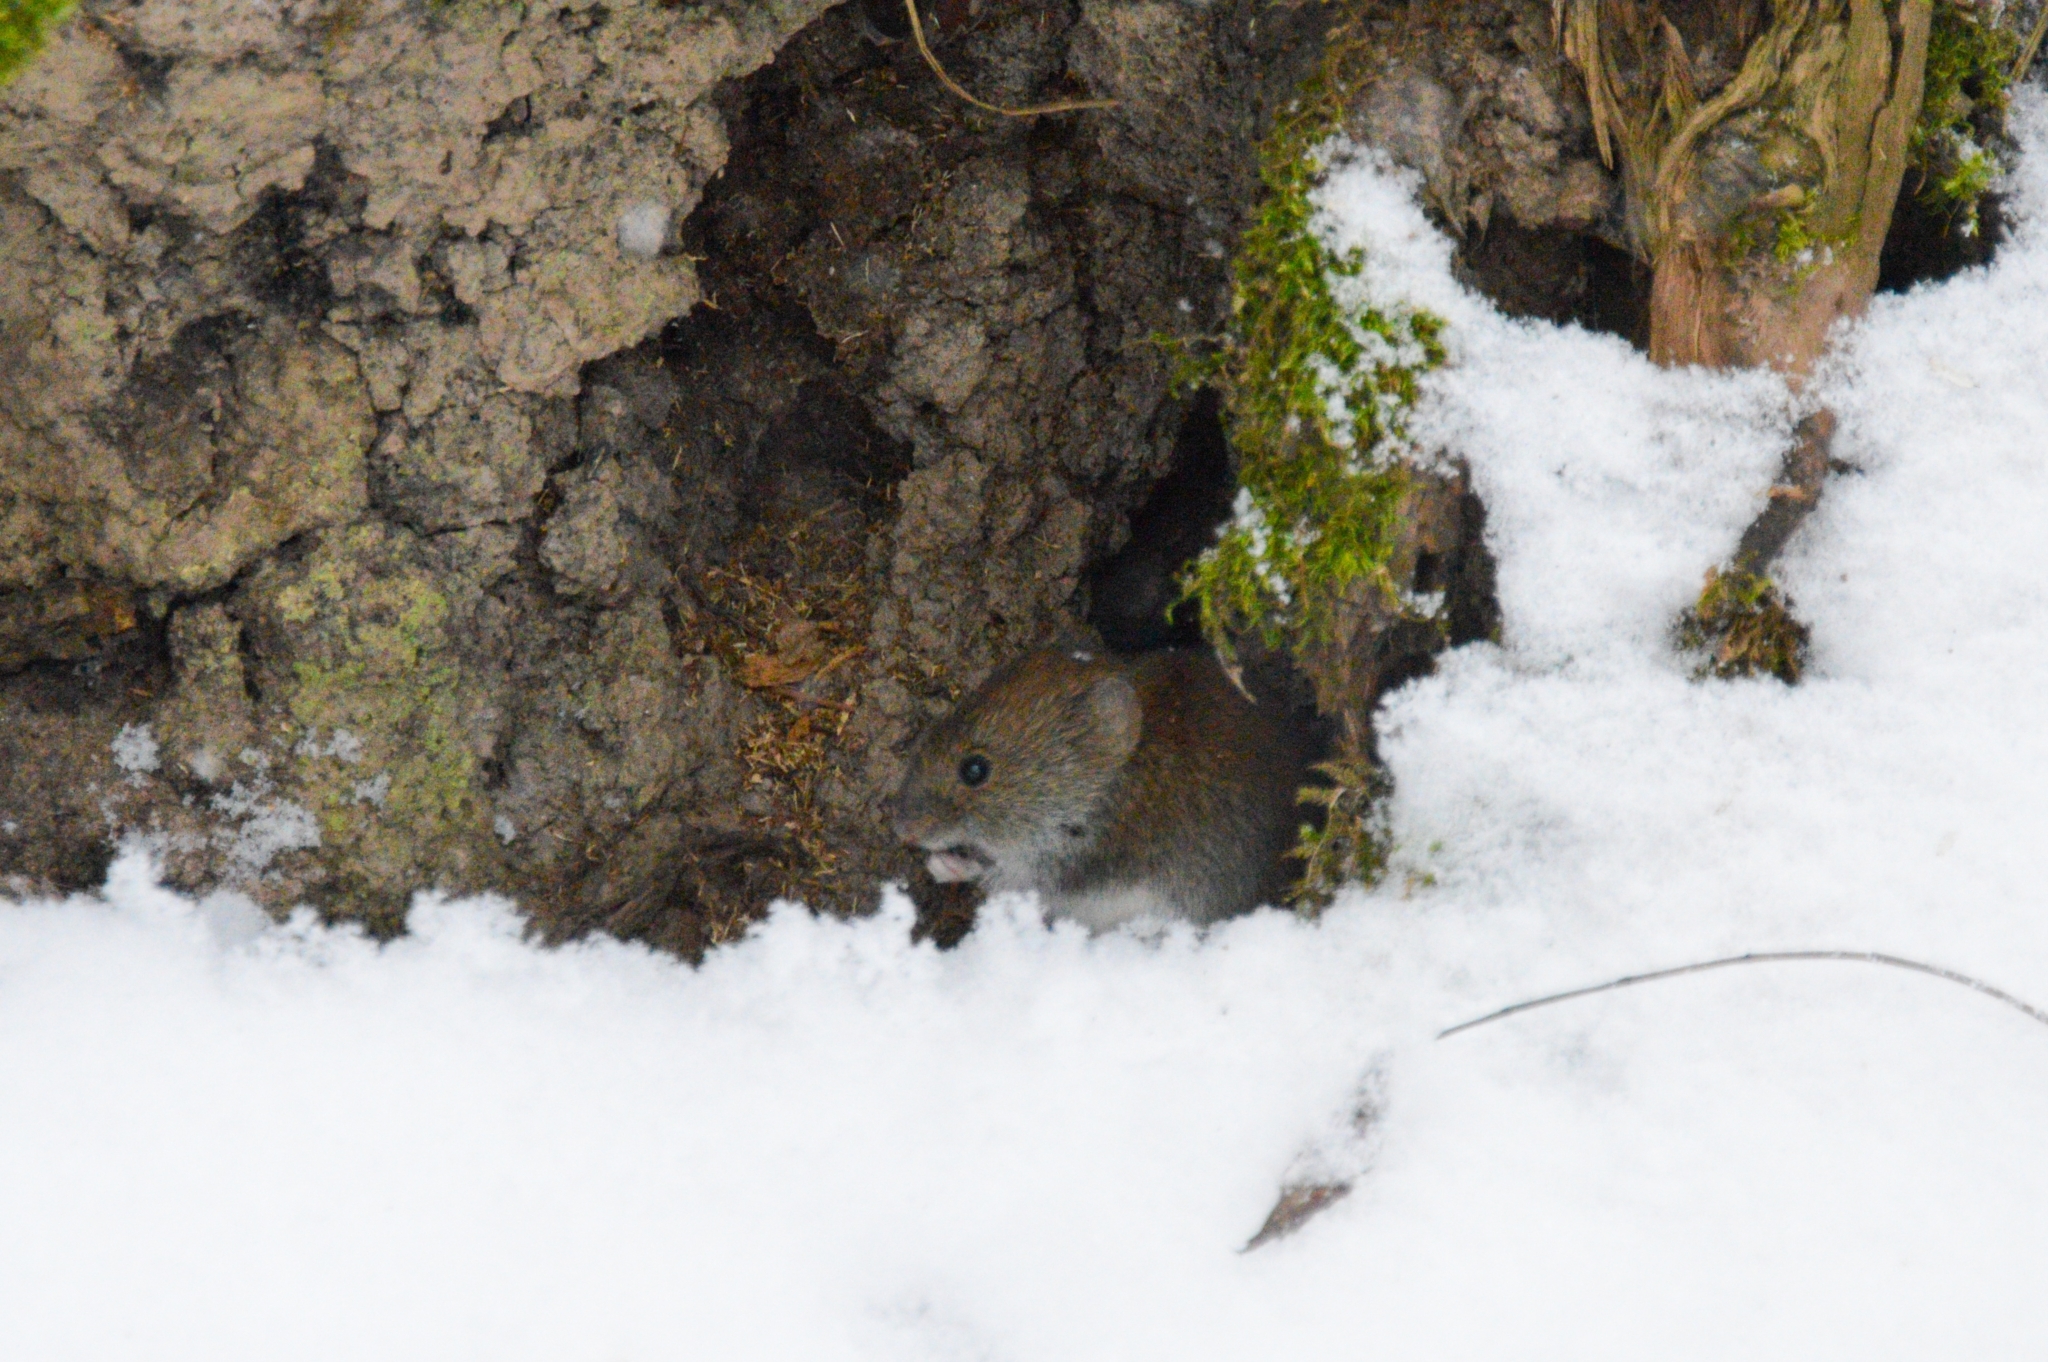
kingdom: Animalia
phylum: Chordata
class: Mammalia
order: Rodentia
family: Cricetidae
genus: Myodes
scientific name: Myodes glareolus
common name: Bank vole
